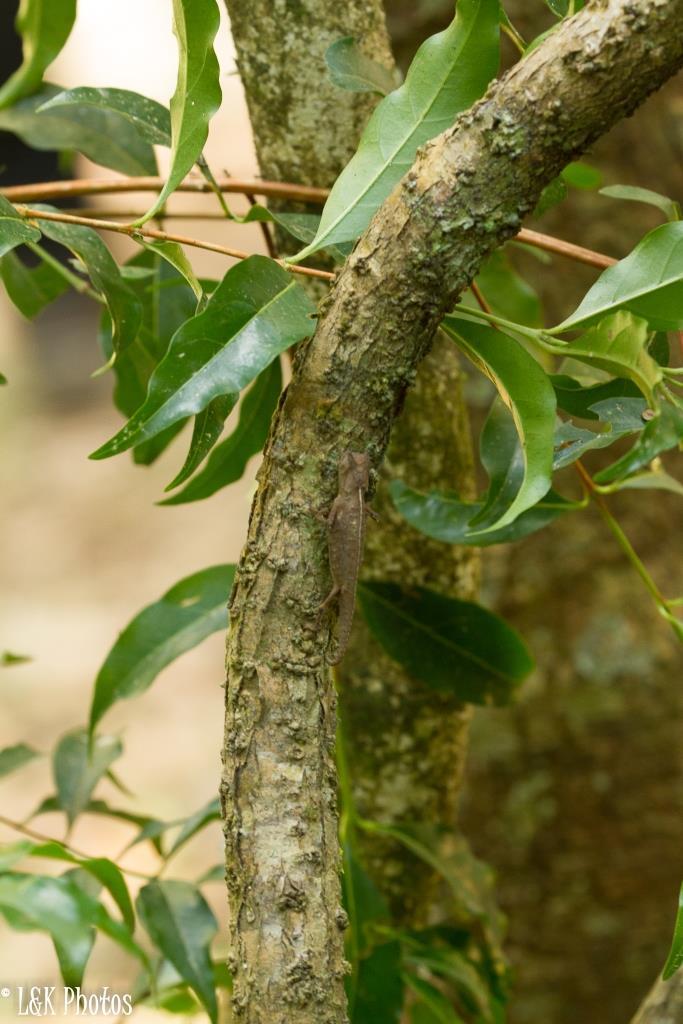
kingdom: Animalia
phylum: Chordata
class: Squamata
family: Chamaeleonidae
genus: Brookesia
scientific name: Brookesia superciliaris
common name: Brown leaf chameleon
